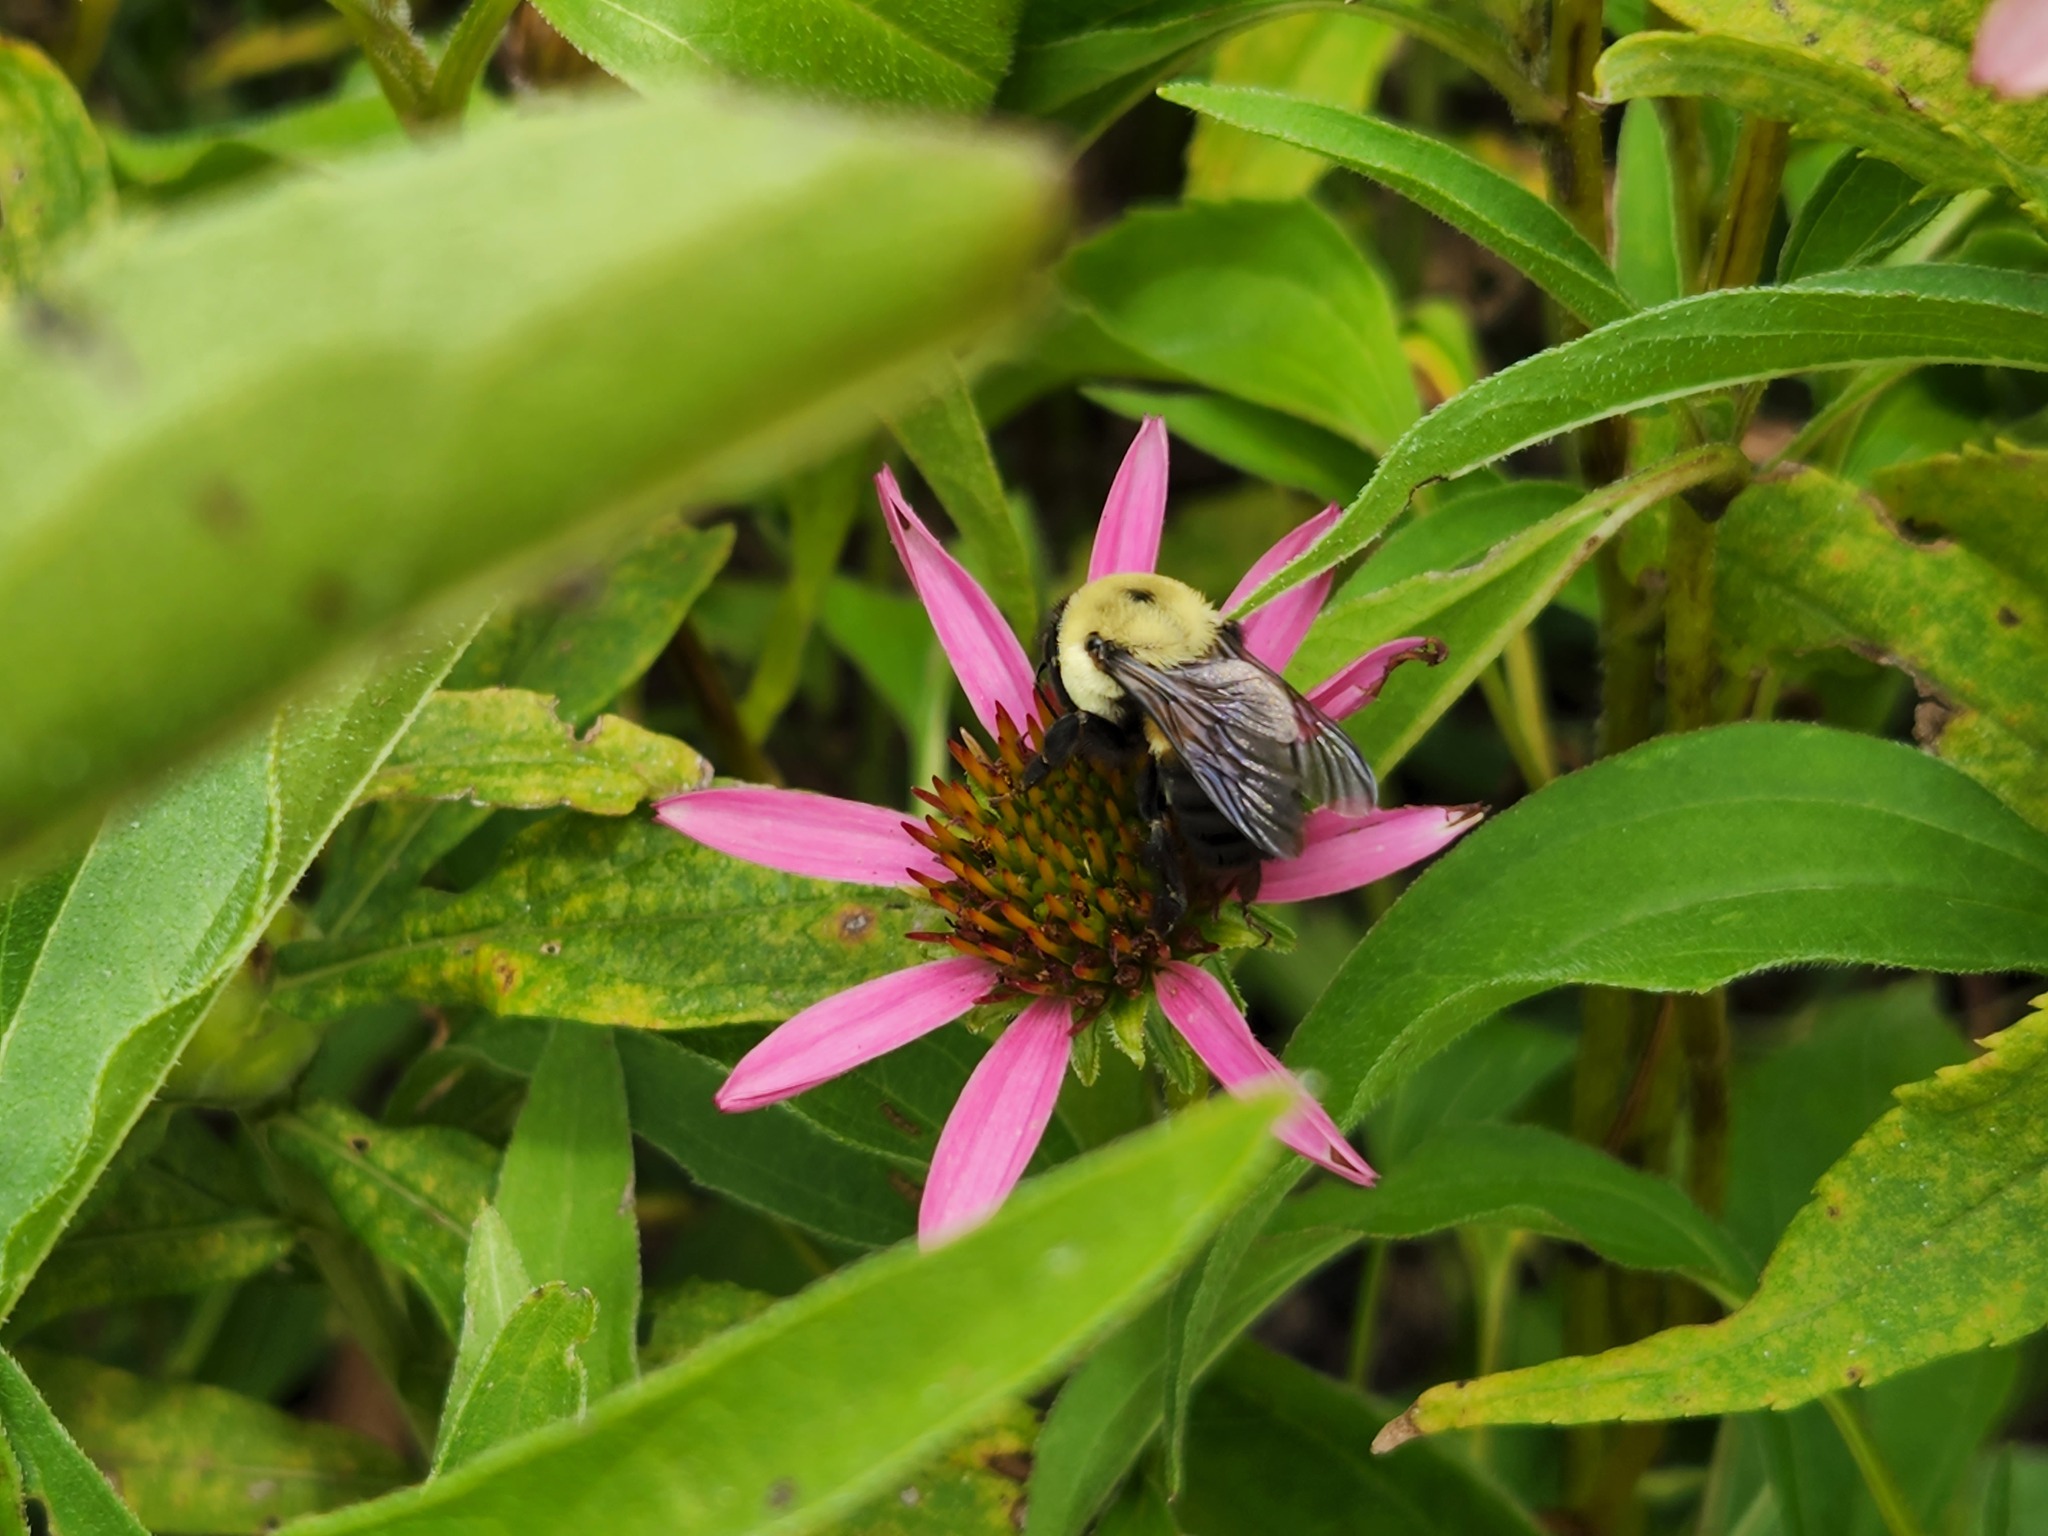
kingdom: Animalia
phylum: Arthropoda
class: Insecta
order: Hymenoptera
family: Apidae
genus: Bombus
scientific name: Bombus griseocollis
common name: Brown-belted bumble bee
